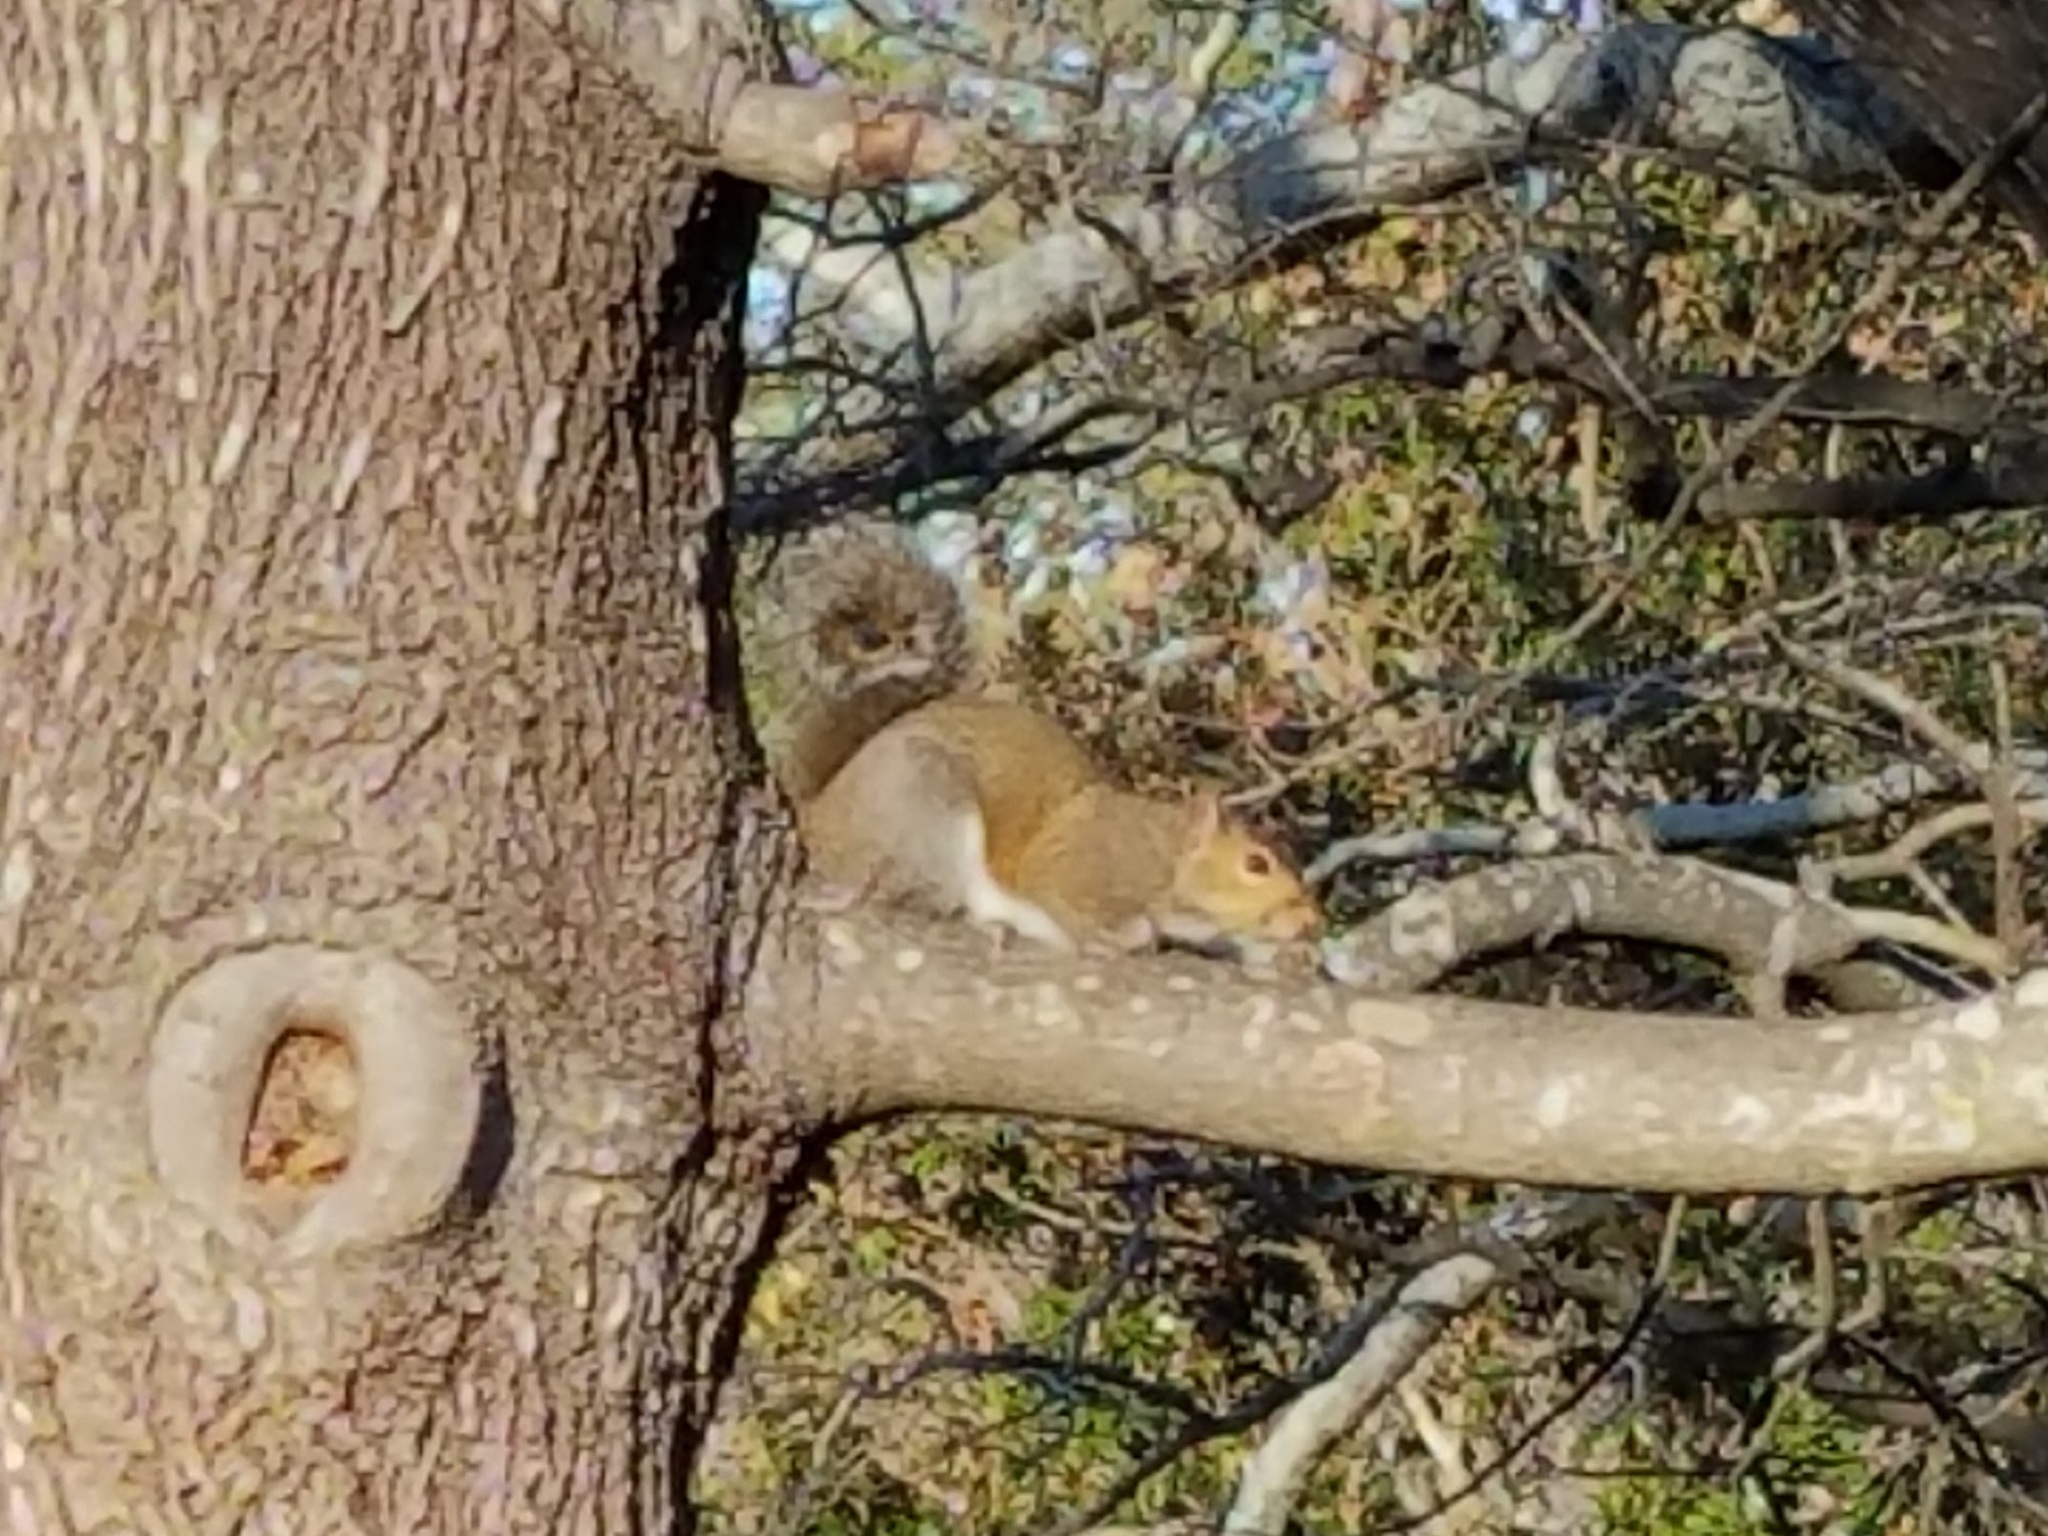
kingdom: Animalia
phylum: Chordata
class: Mammalia
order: Rodentia
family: Sciuridae
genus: Sciurus
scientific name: Sciurus carolinensis
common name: Eastern gray squirrel
